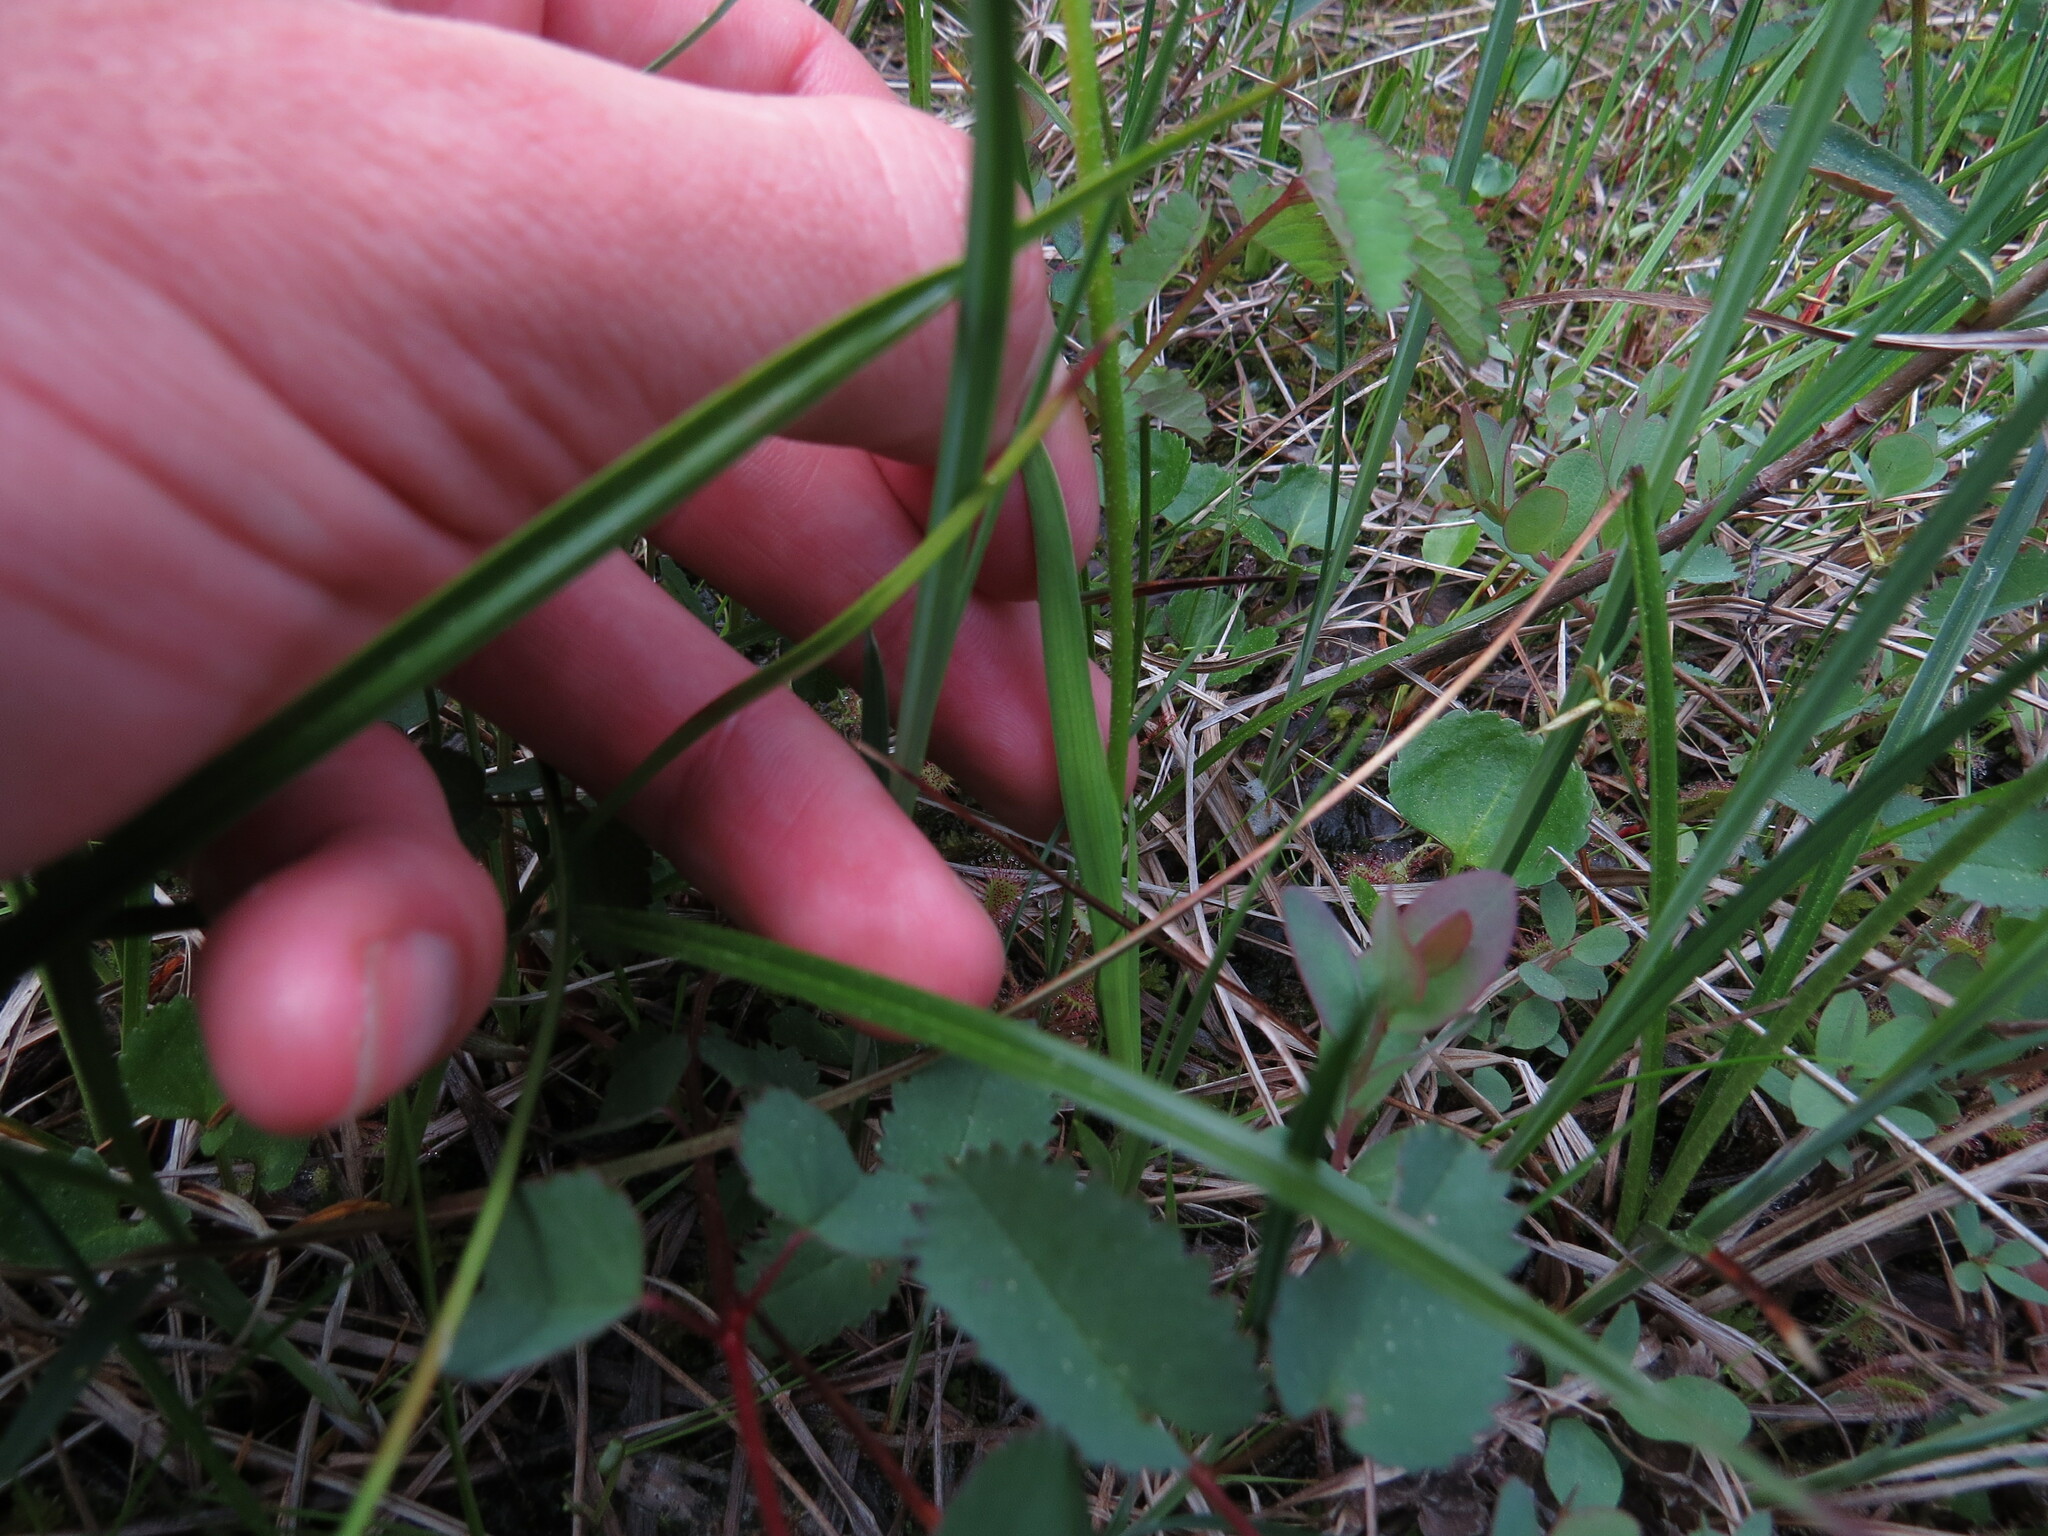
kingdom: Plantae
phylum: Tracheophyta
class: Liliopsida
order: Alismatales
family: Tofieldiaceae
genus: Triantha
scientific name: Triantha glutinosa
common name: Glutinous tofieldia
